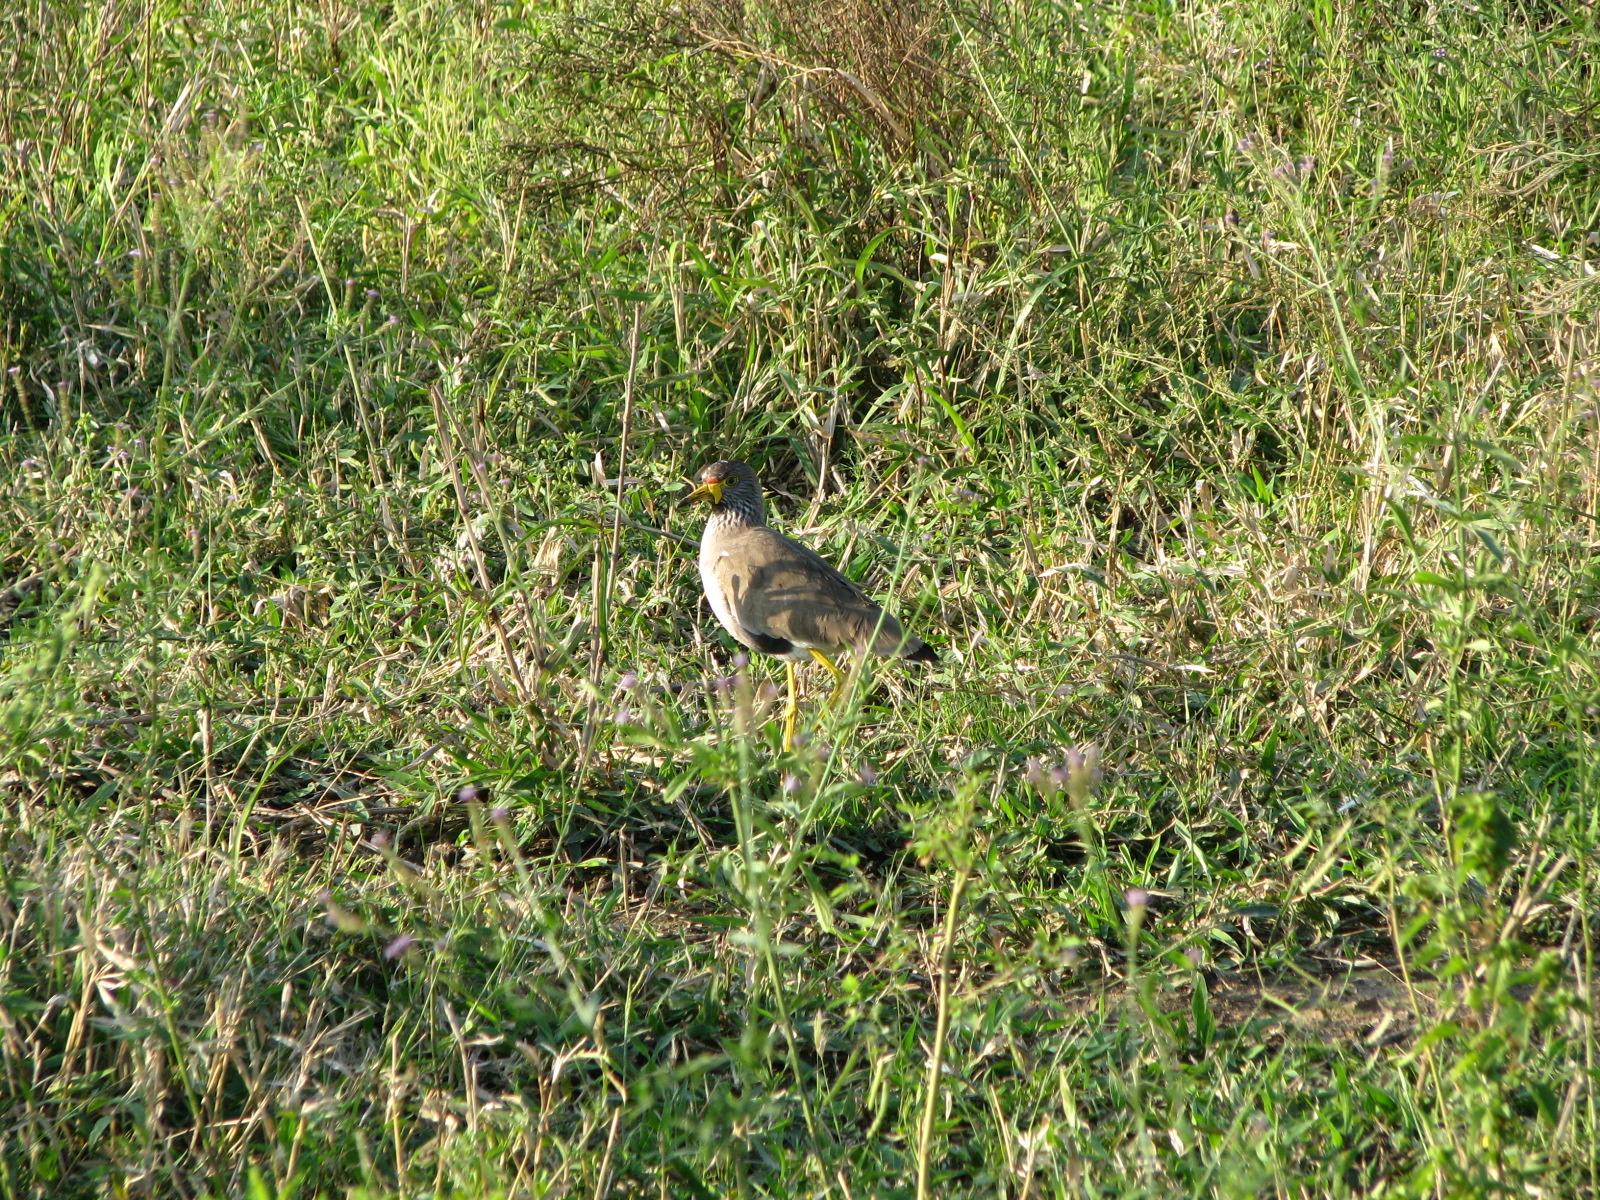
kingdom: Animalia
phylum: Chordata
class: Aves
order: Charadriiformes
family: Charadriidae
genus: Vanellus
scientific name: Vanellus senegallus
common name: African wattled lapwing
